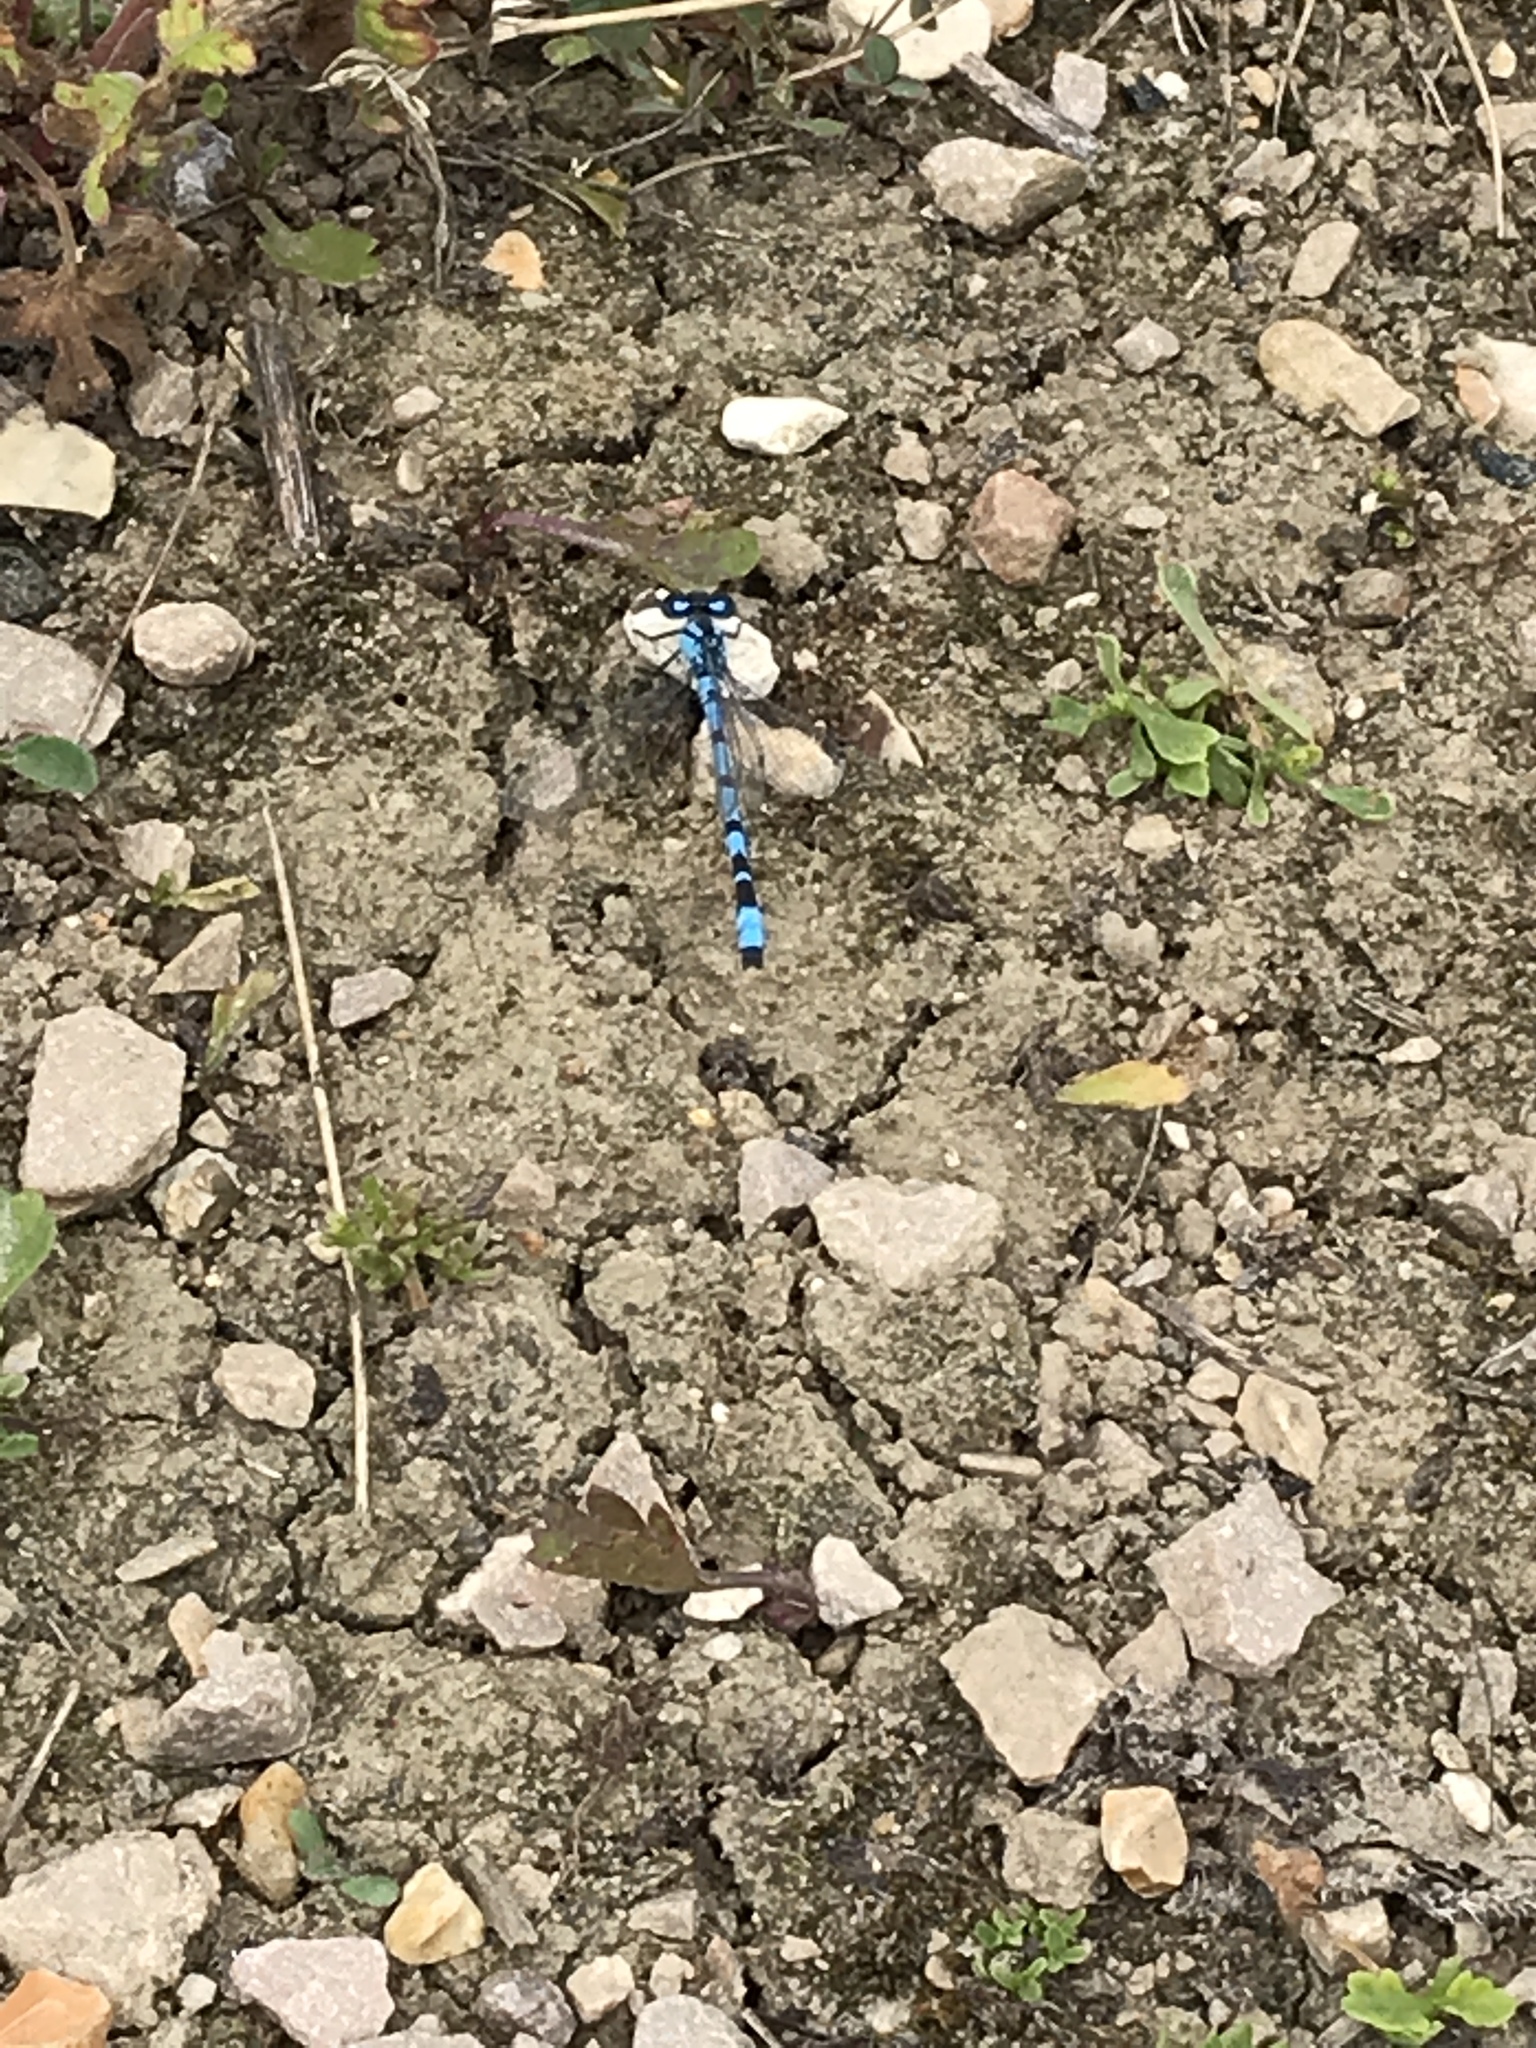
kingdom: Animalia
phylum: Arthropoda
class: Insecta
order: Odonata
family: Coenagrionidae
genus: Enallagma
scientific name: Enallagma cyathigerum
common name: Common blue damselfly
